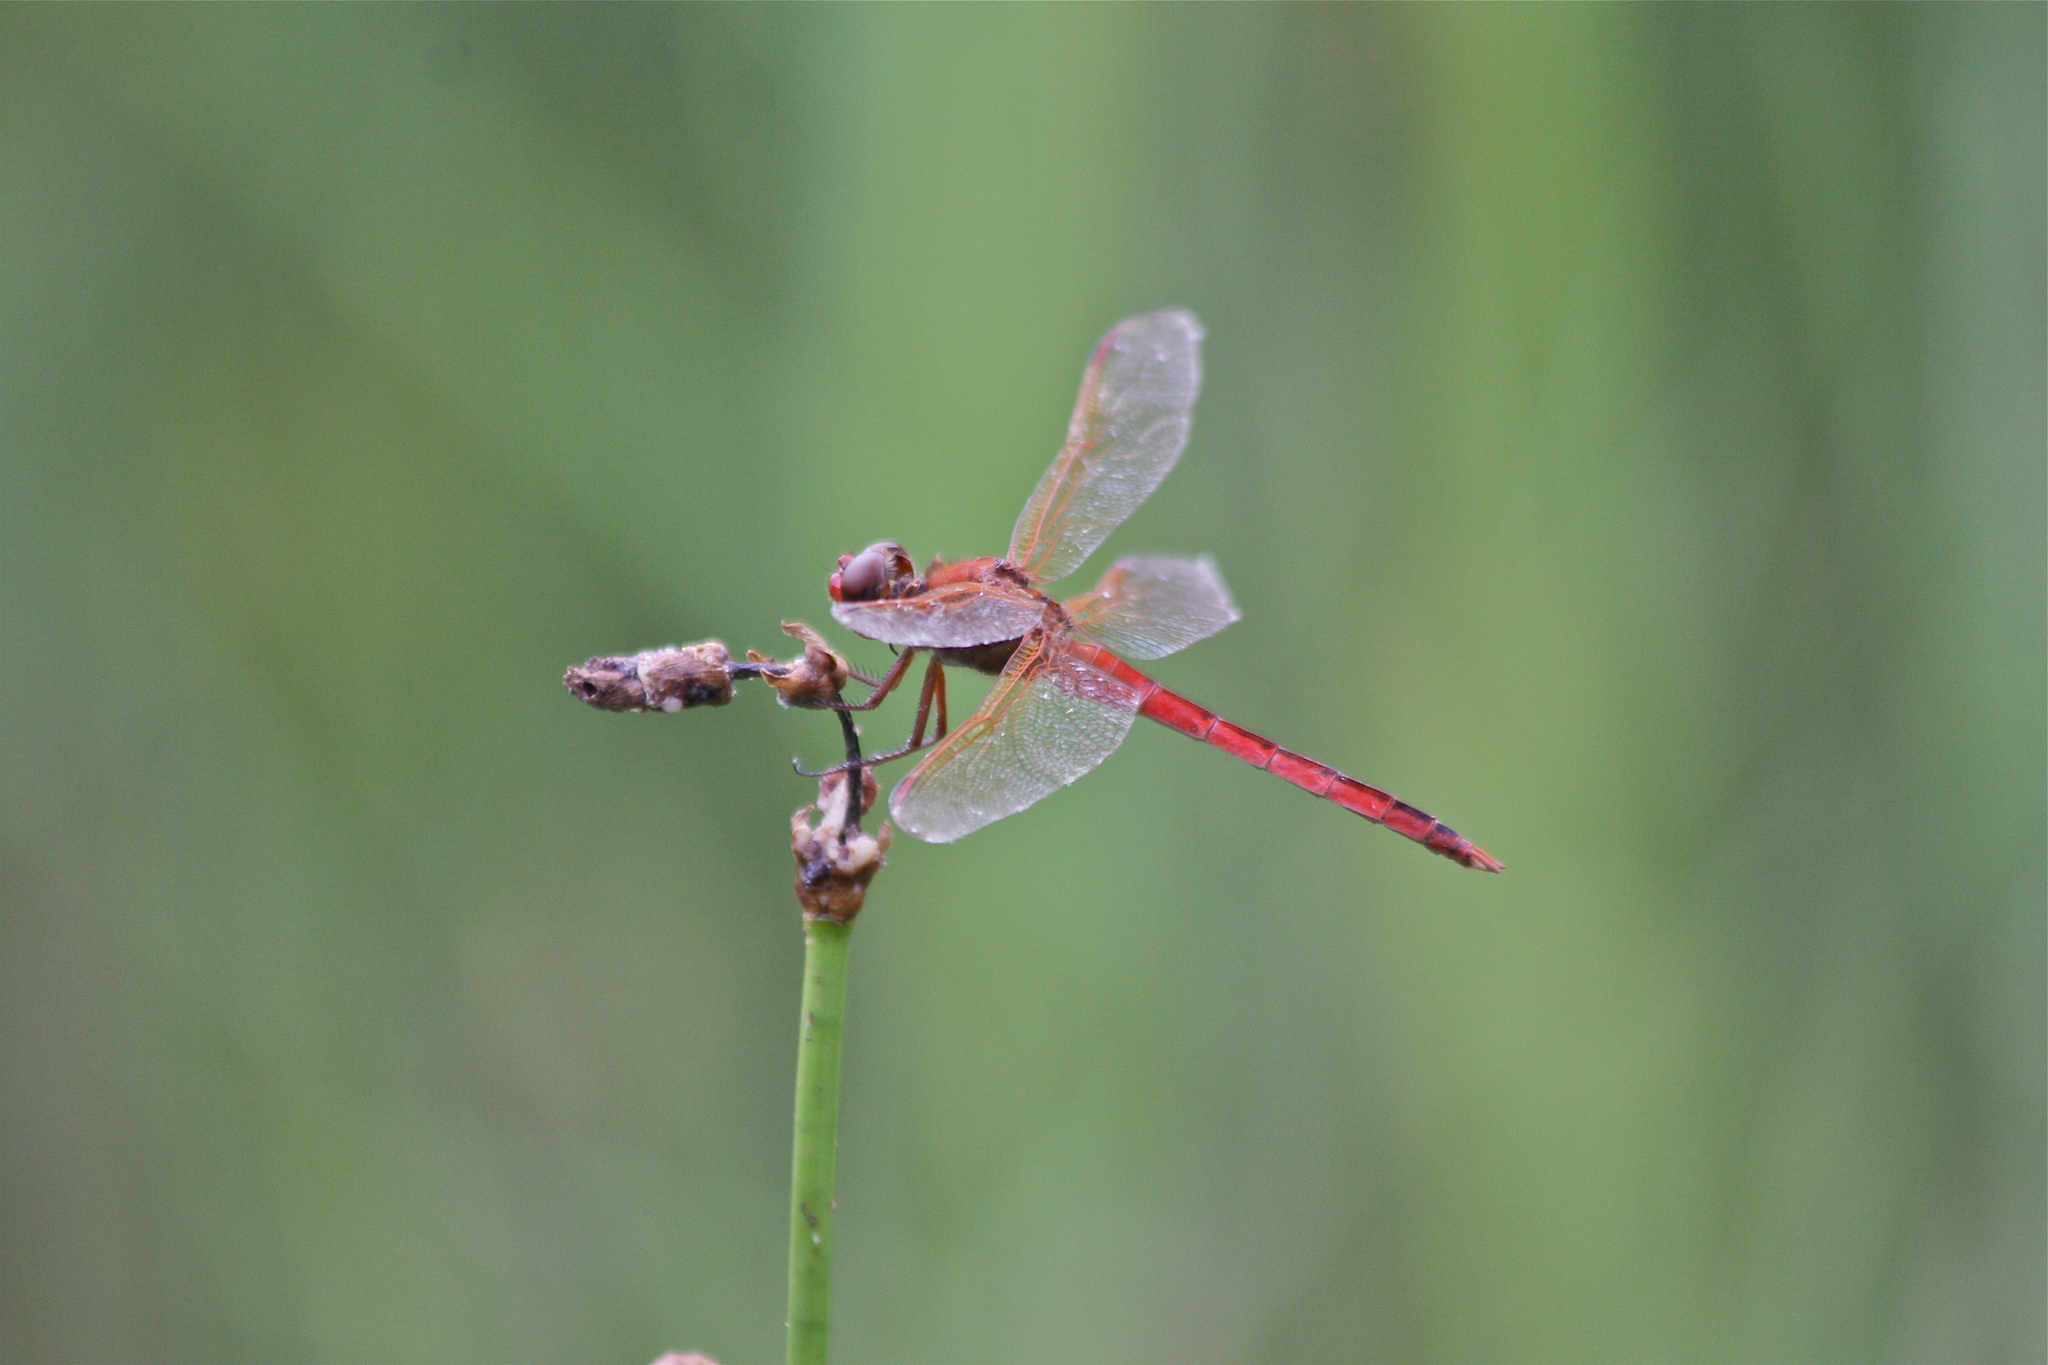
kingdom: Animalia
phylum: Arthropoda
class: Insecta
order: Odonata
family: Libellulidae
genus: Libellula
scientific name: Libellula needhami
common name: Needham's skimmer
